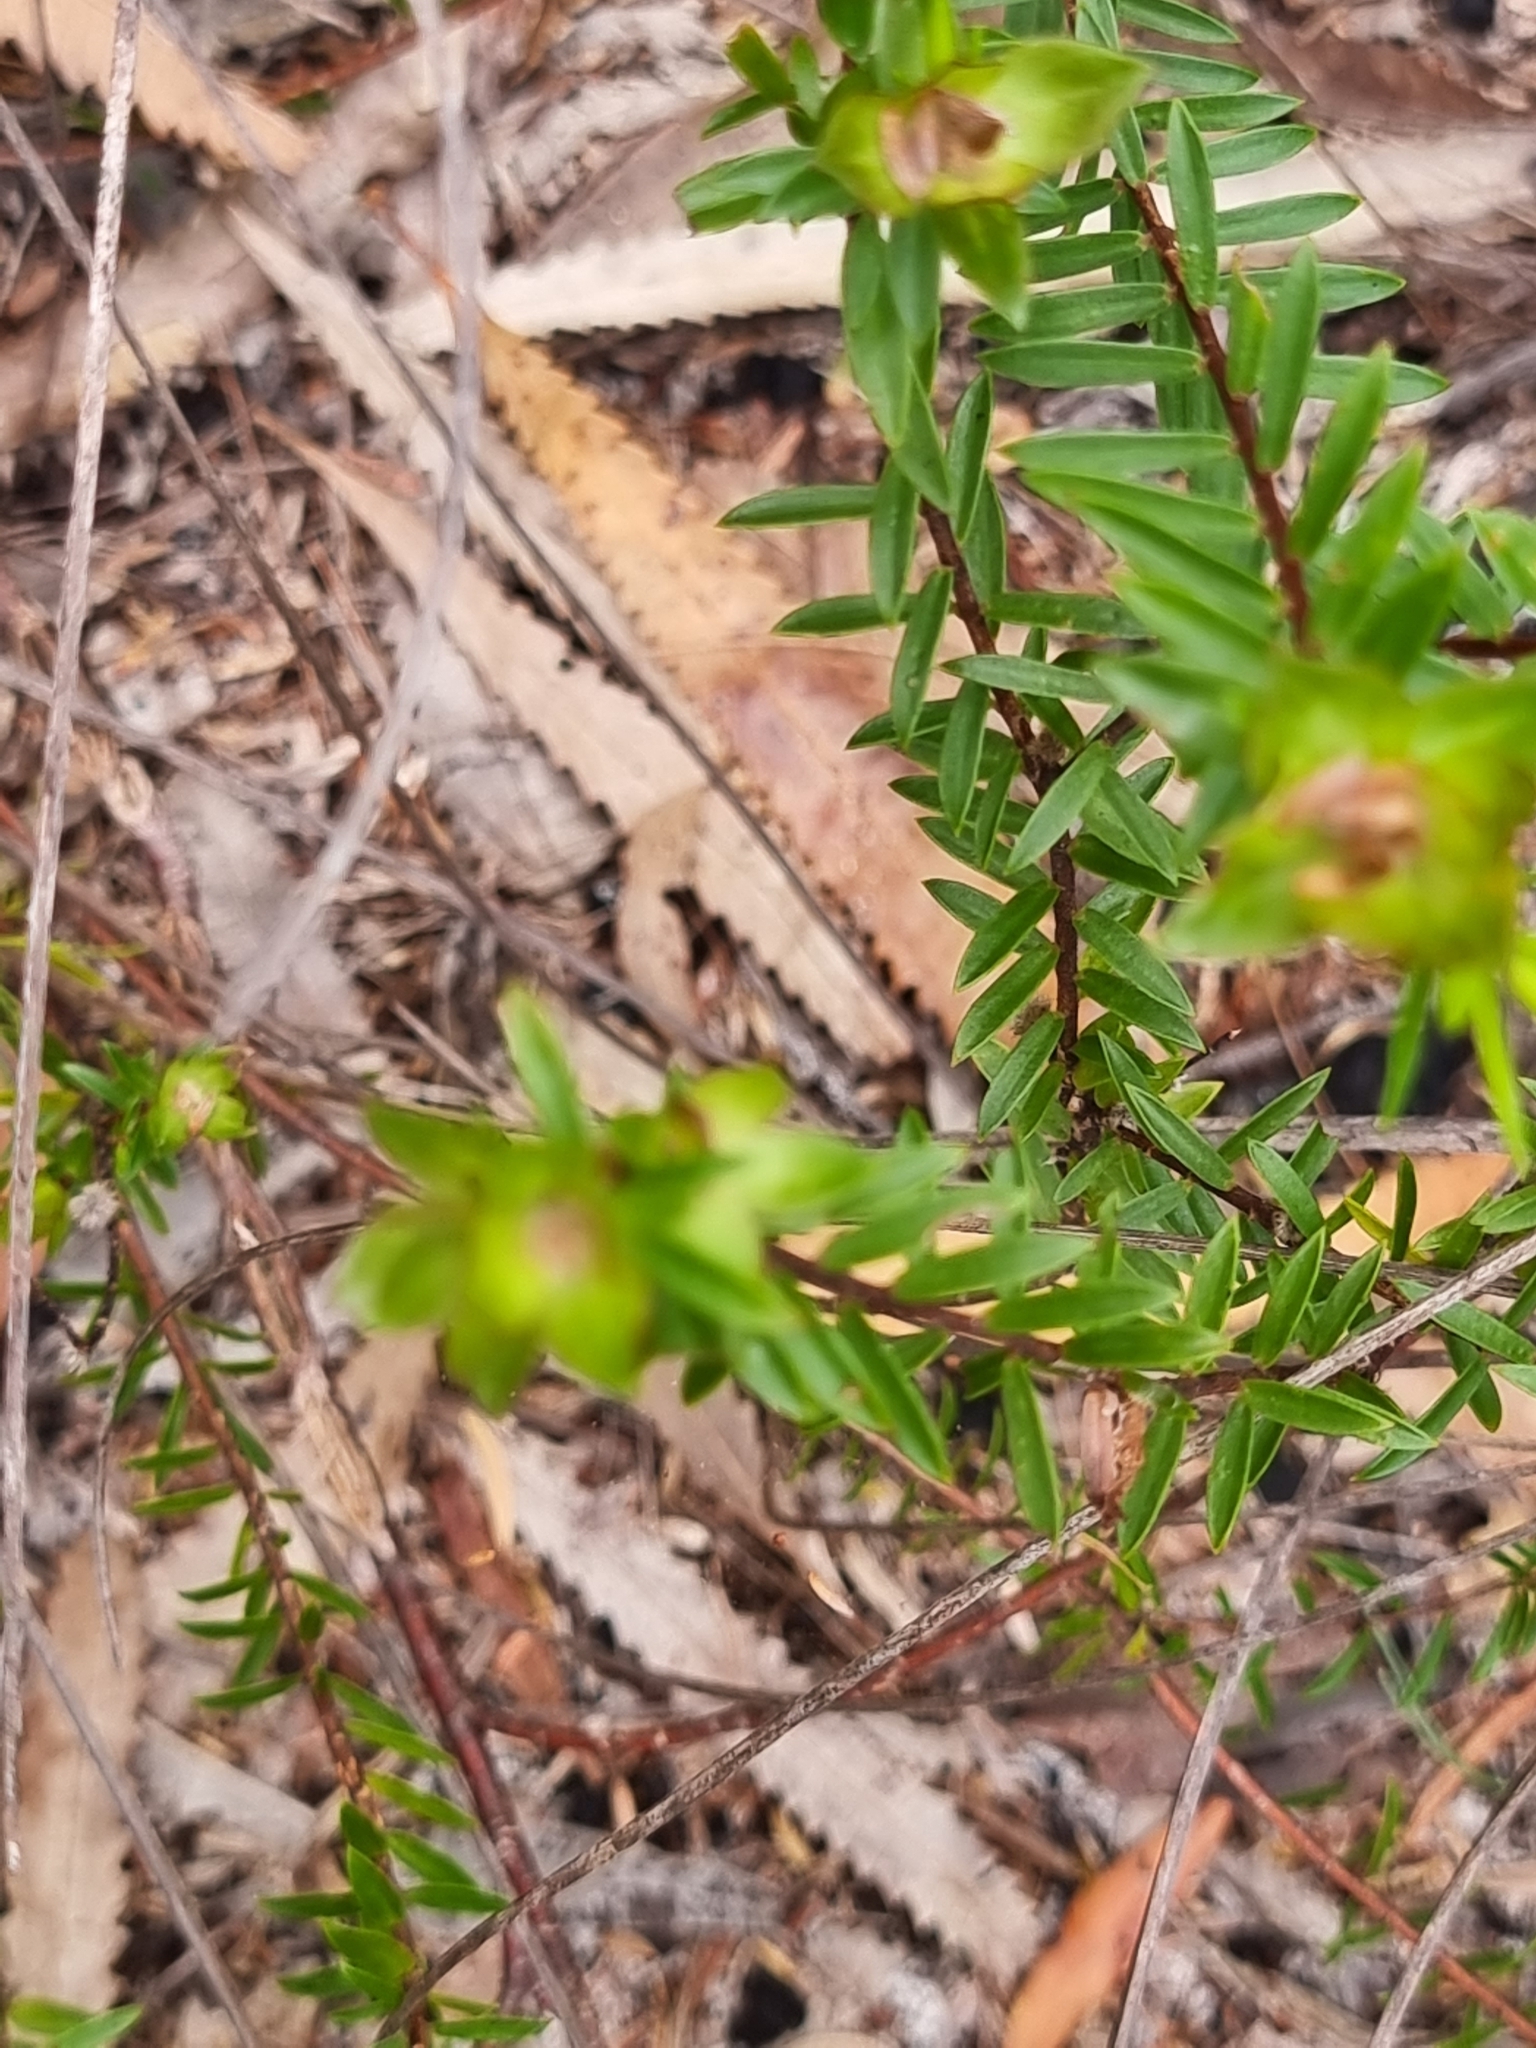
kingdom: Plantae
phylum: Tracheophyta
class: Magnoliopsida
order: Malvales
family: Thymelaeaceae
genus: Pimelea
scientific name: Pimelea linifolia
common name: Queen-of-the-bush
